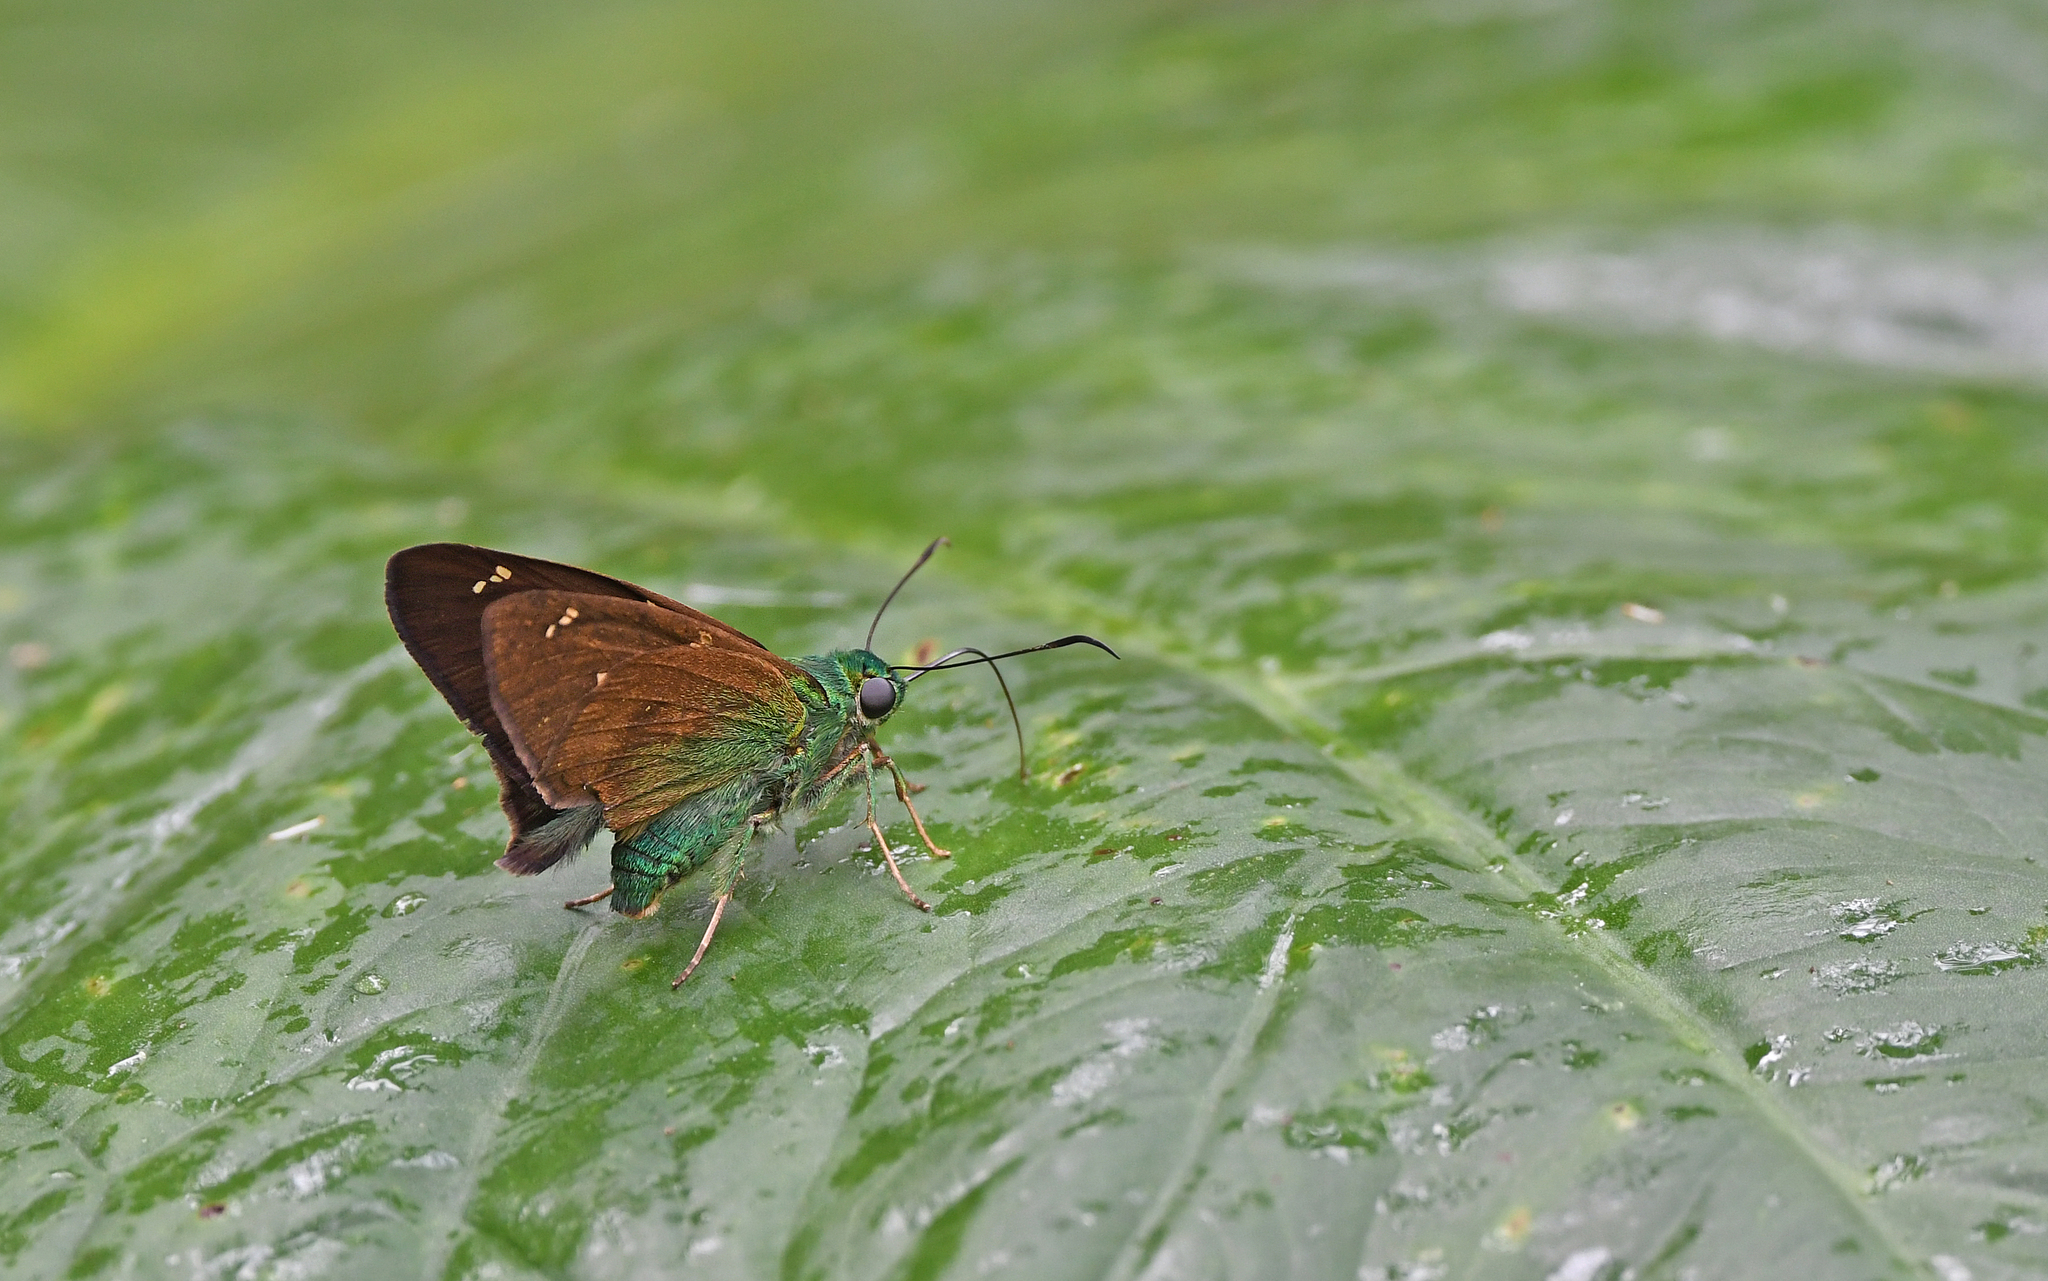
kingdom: Animalia
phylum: Arthropoda
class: Insecta
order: Lepidoptera
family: Hesperiidae
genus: Astraptes
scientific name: Astraptes talus
